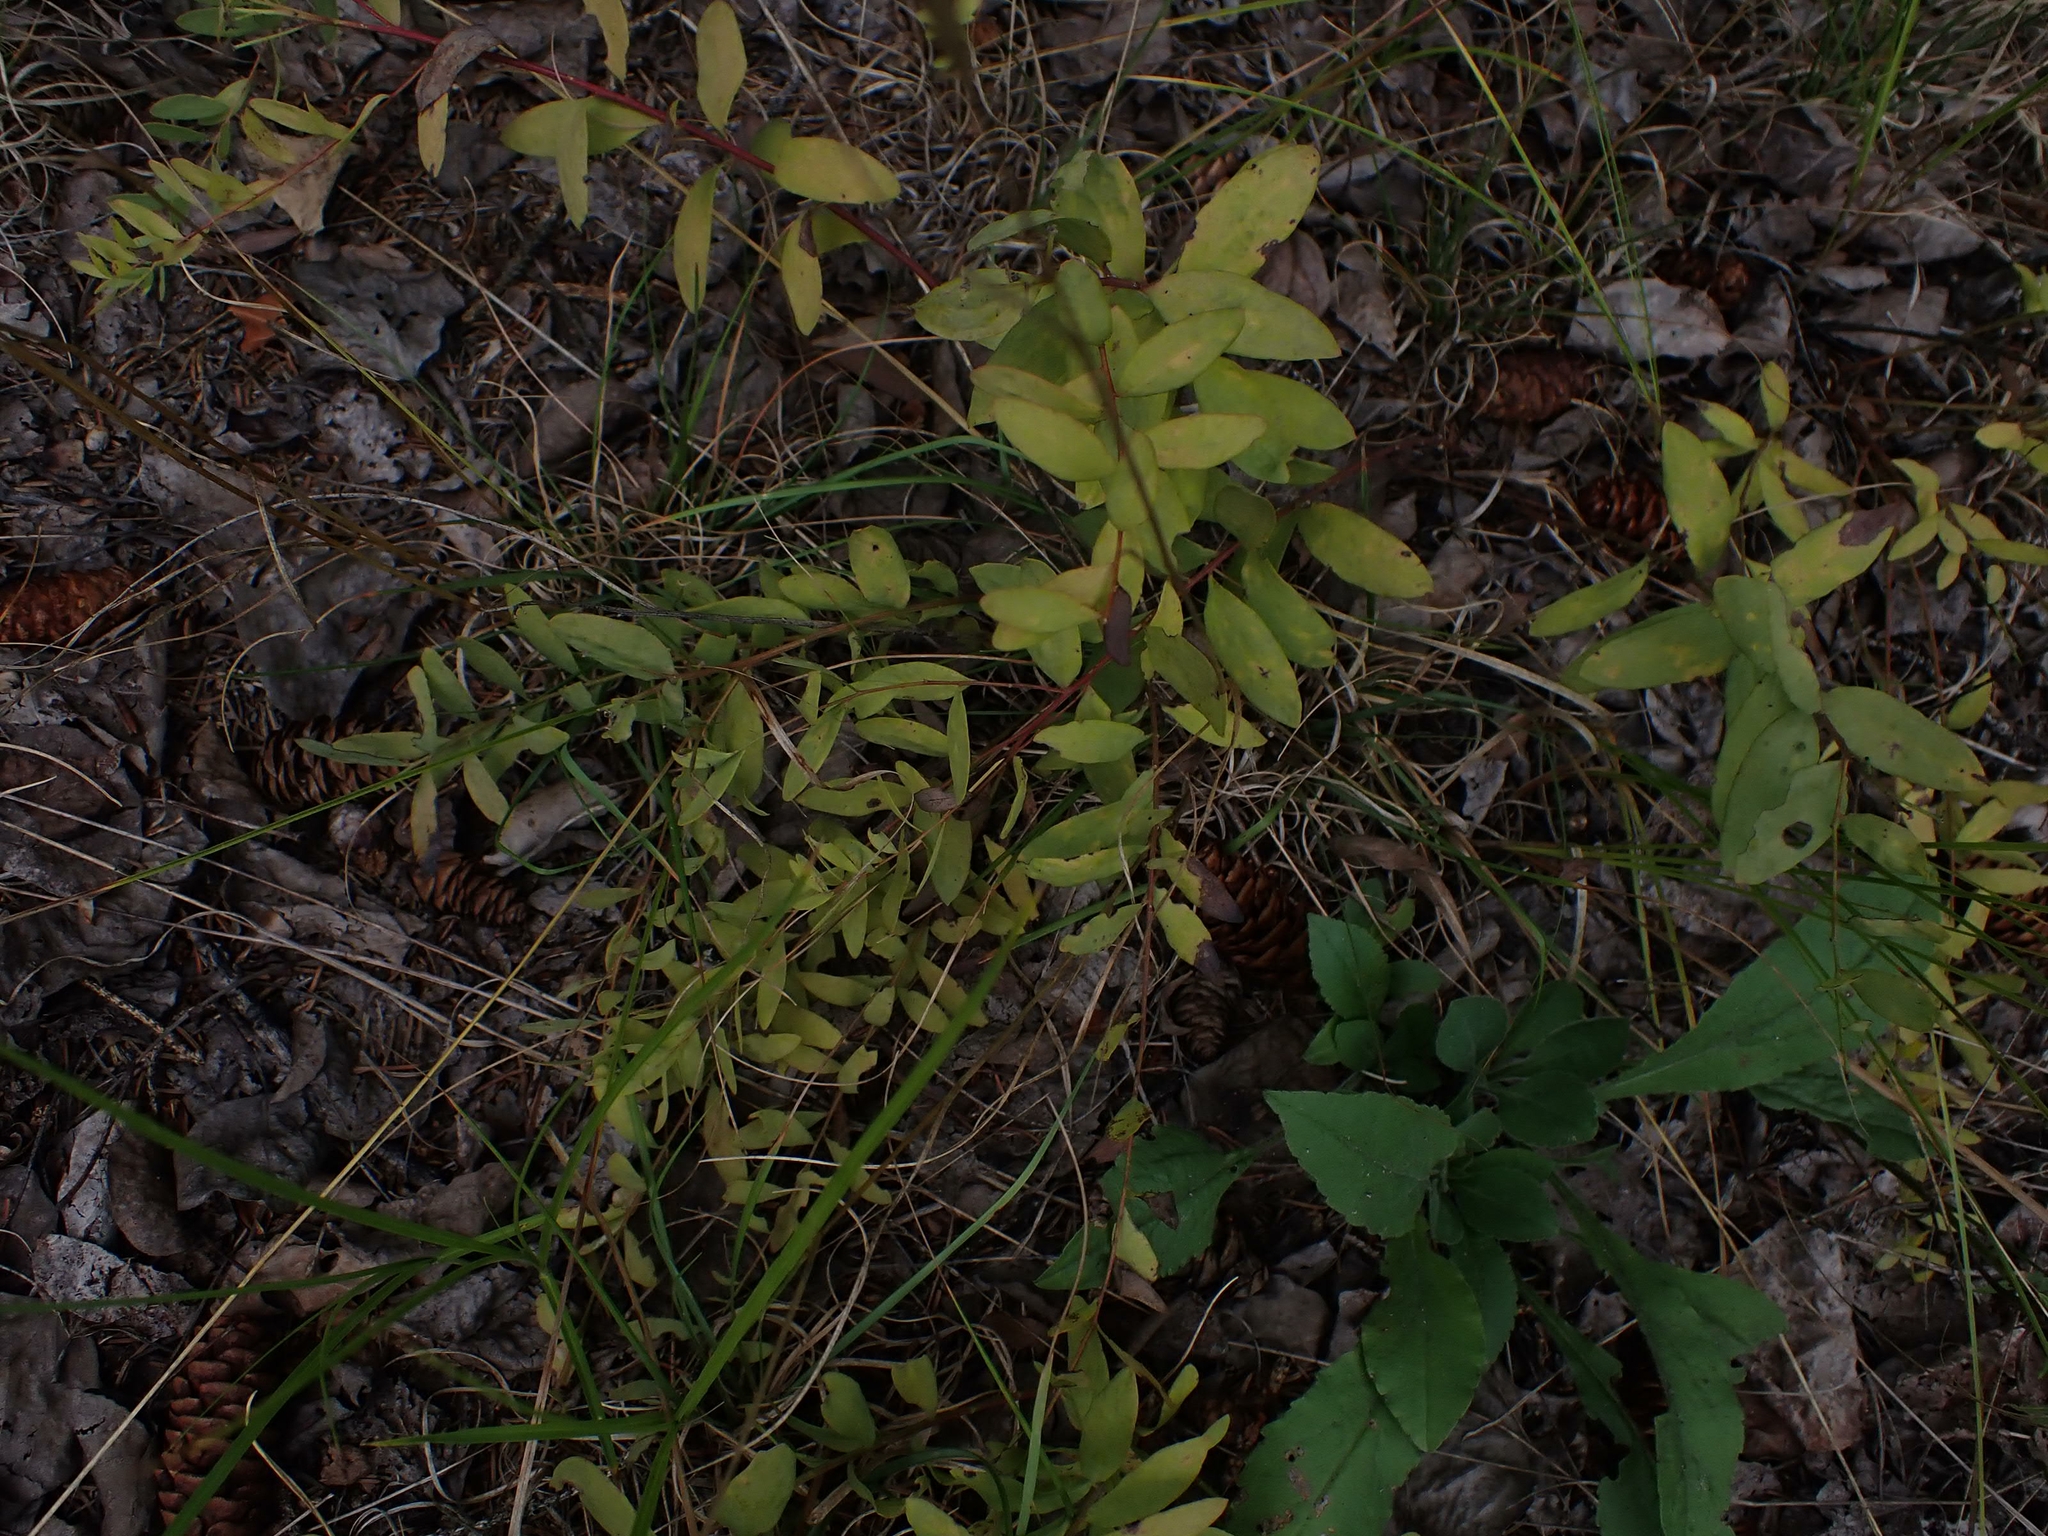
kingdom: Plantae
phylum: Tracheophyta
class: Magnoliopsida
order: Santalales
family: Comandraceae
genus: Comandra
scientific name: Comandra umbellata
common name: Bastard toadflax
